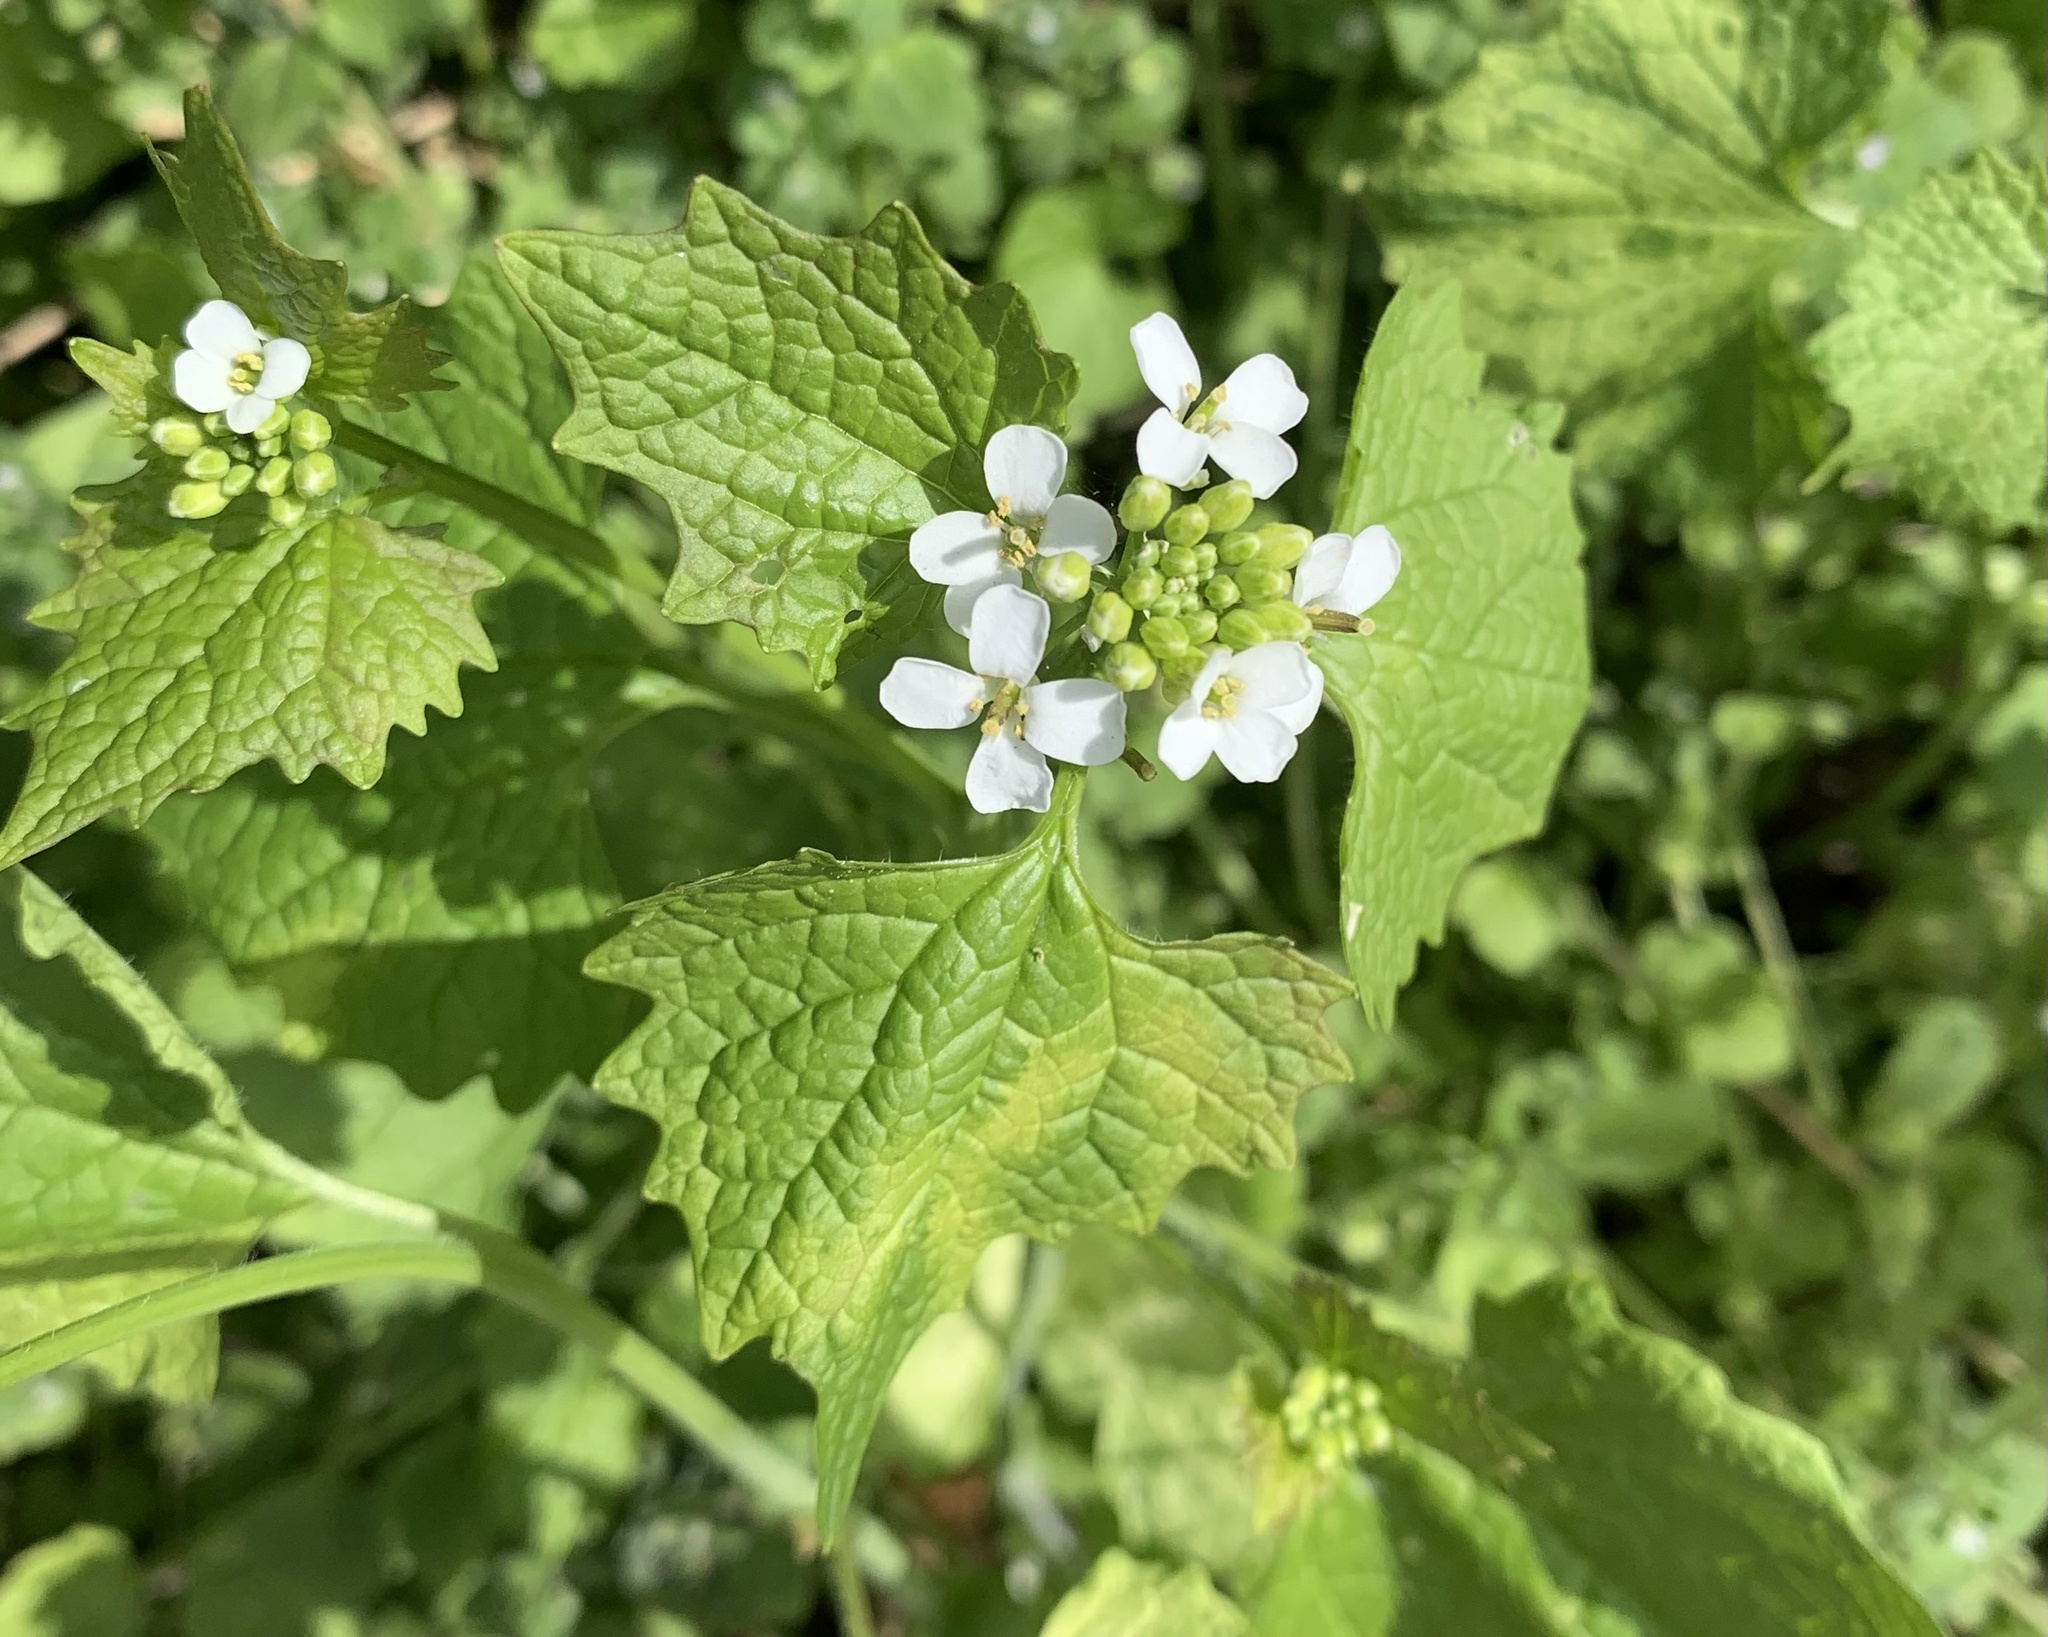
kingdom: Plantae
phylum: Tracheophyta
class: Magnoliopsida
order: Brassicales
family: Brassicaceae
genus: Alliaria
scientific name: Alliaria petiolata
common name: Garlic mustard
